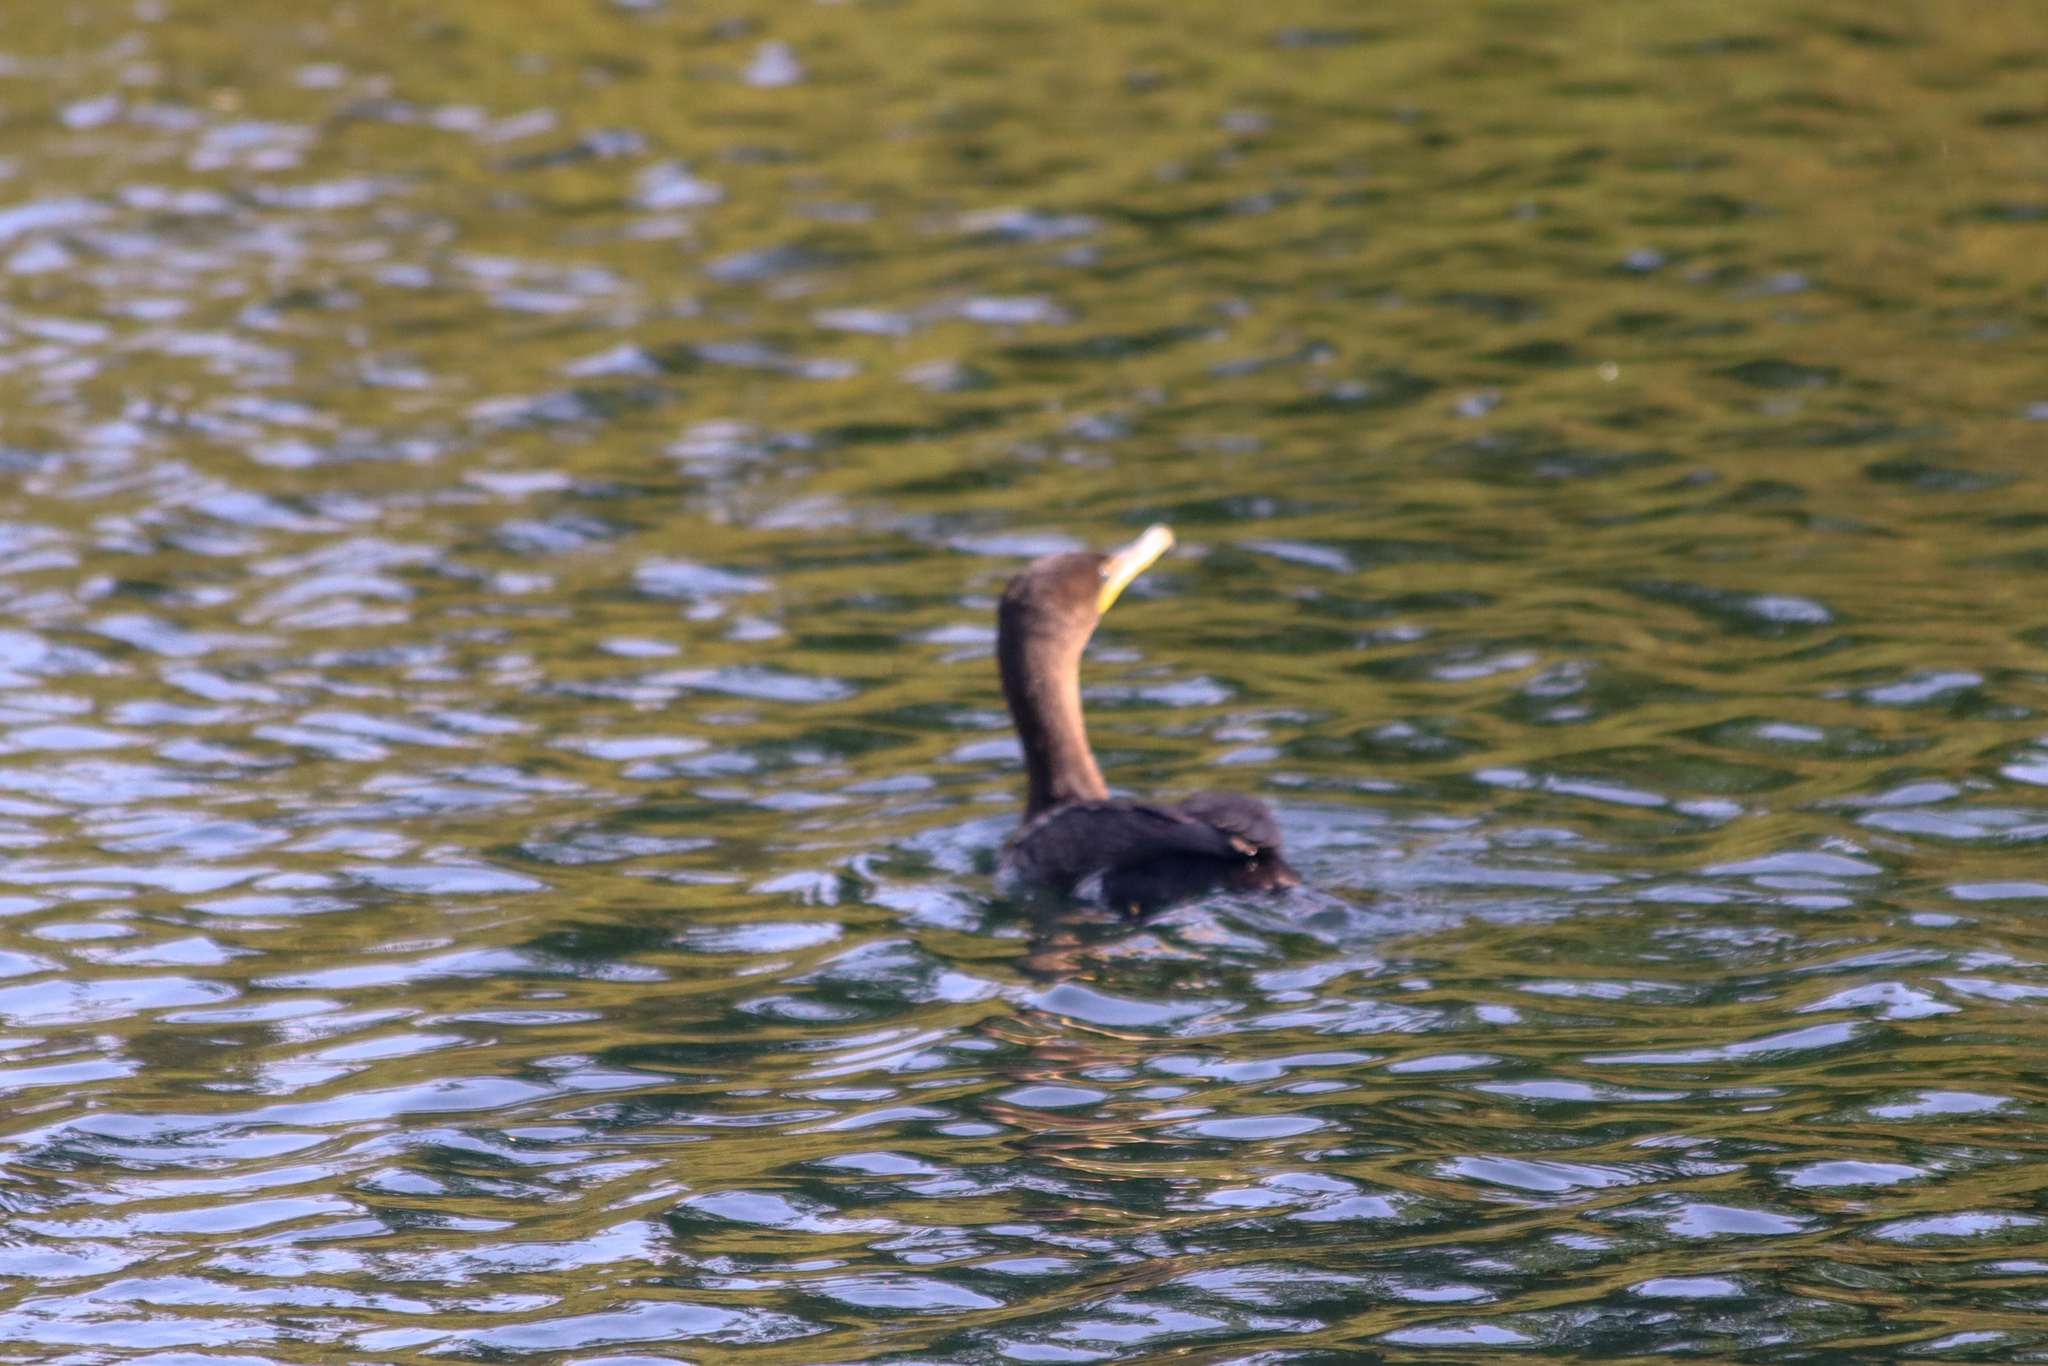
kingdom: Animalia
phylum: Chordata
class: Aves
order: Suliformes
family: Phalacrocoracidae
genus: Phalacrocorax
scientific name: Phalacrocorax auritus
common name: Double-crested cormorant
